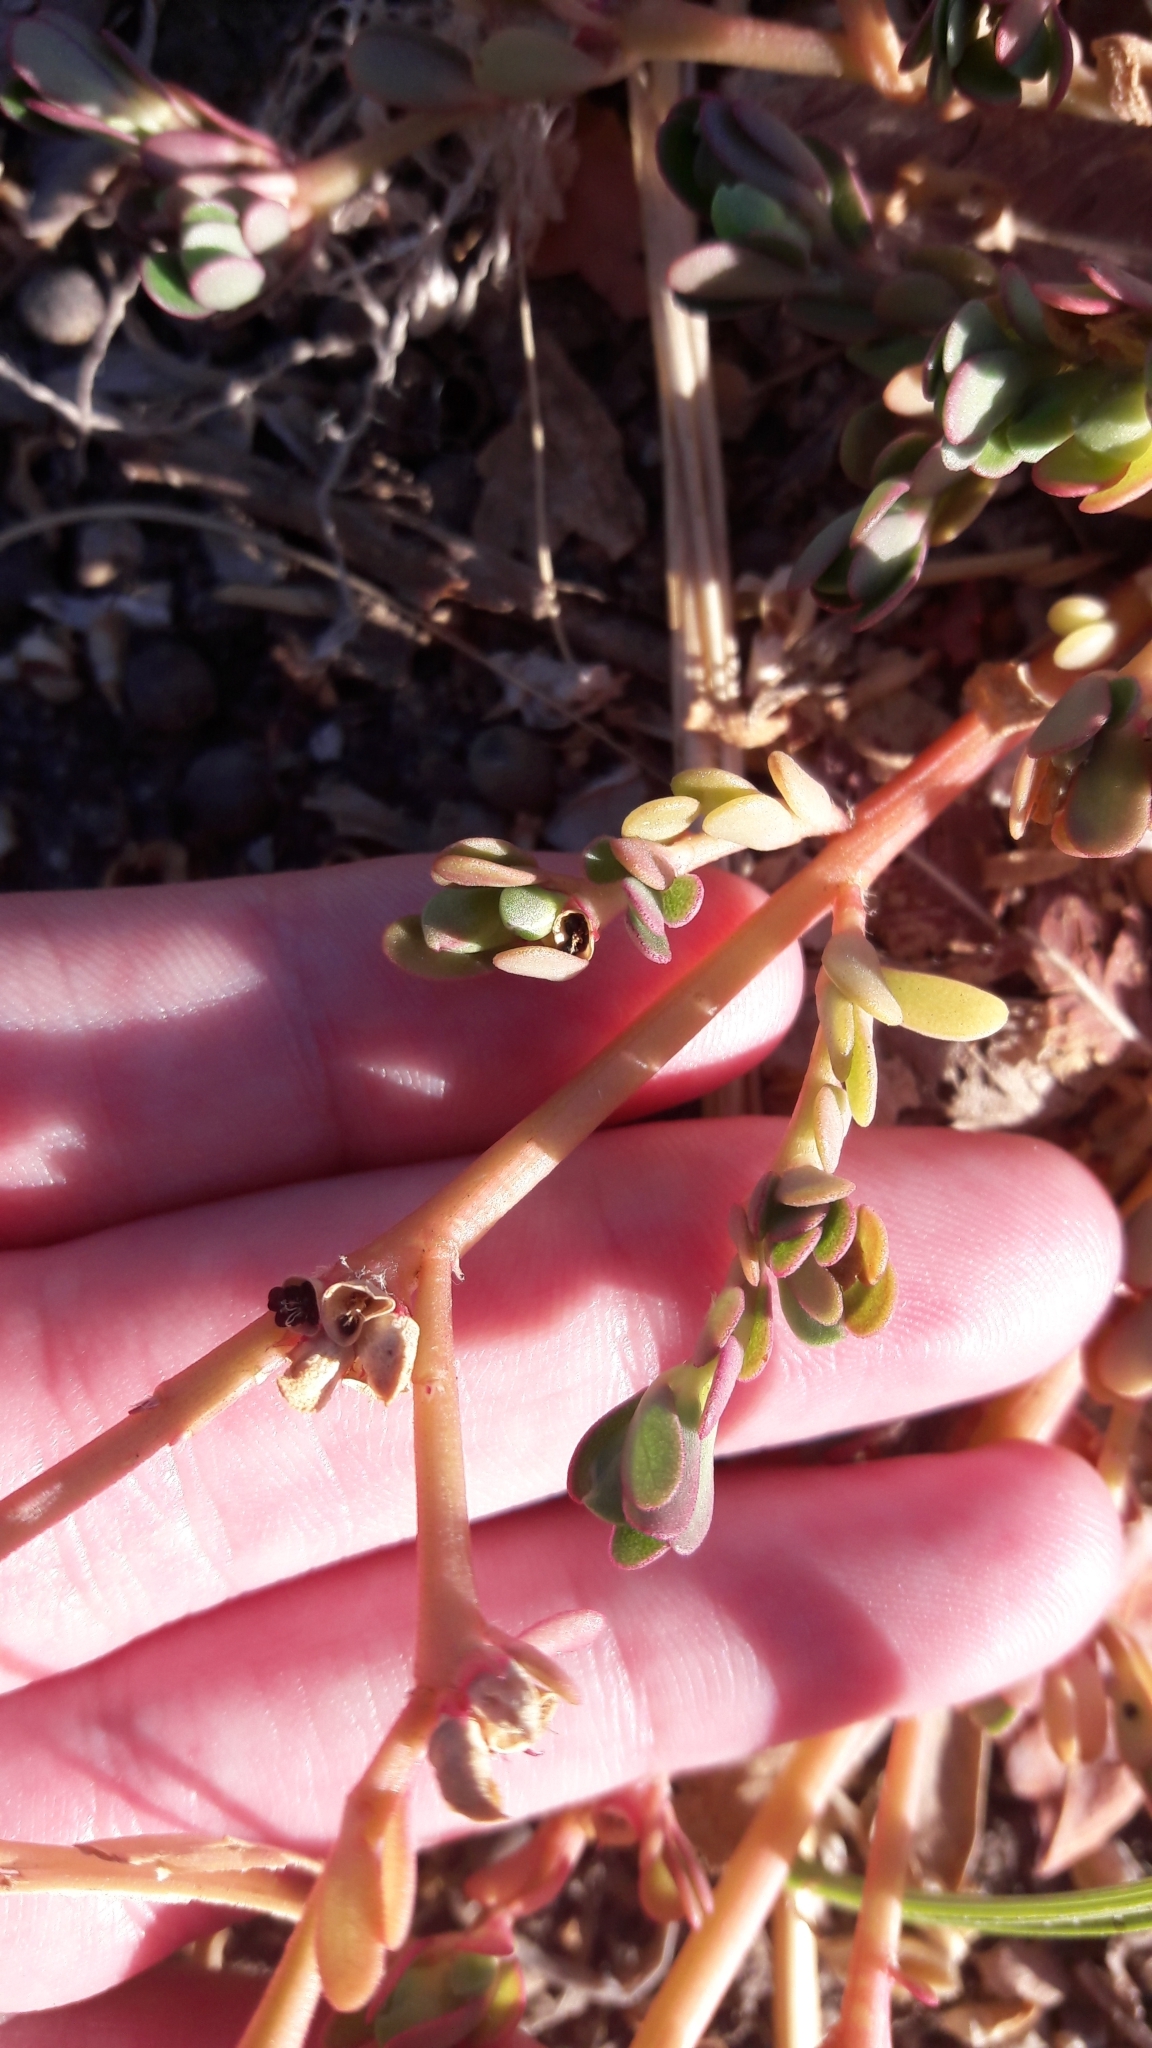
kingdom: Plantae
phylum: Tracheophyta
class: Magnoliopsida
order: Caryophyllales
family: Portulacaceae
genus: Portulaca
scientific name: Portulaca oleracea
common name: Common purslane
